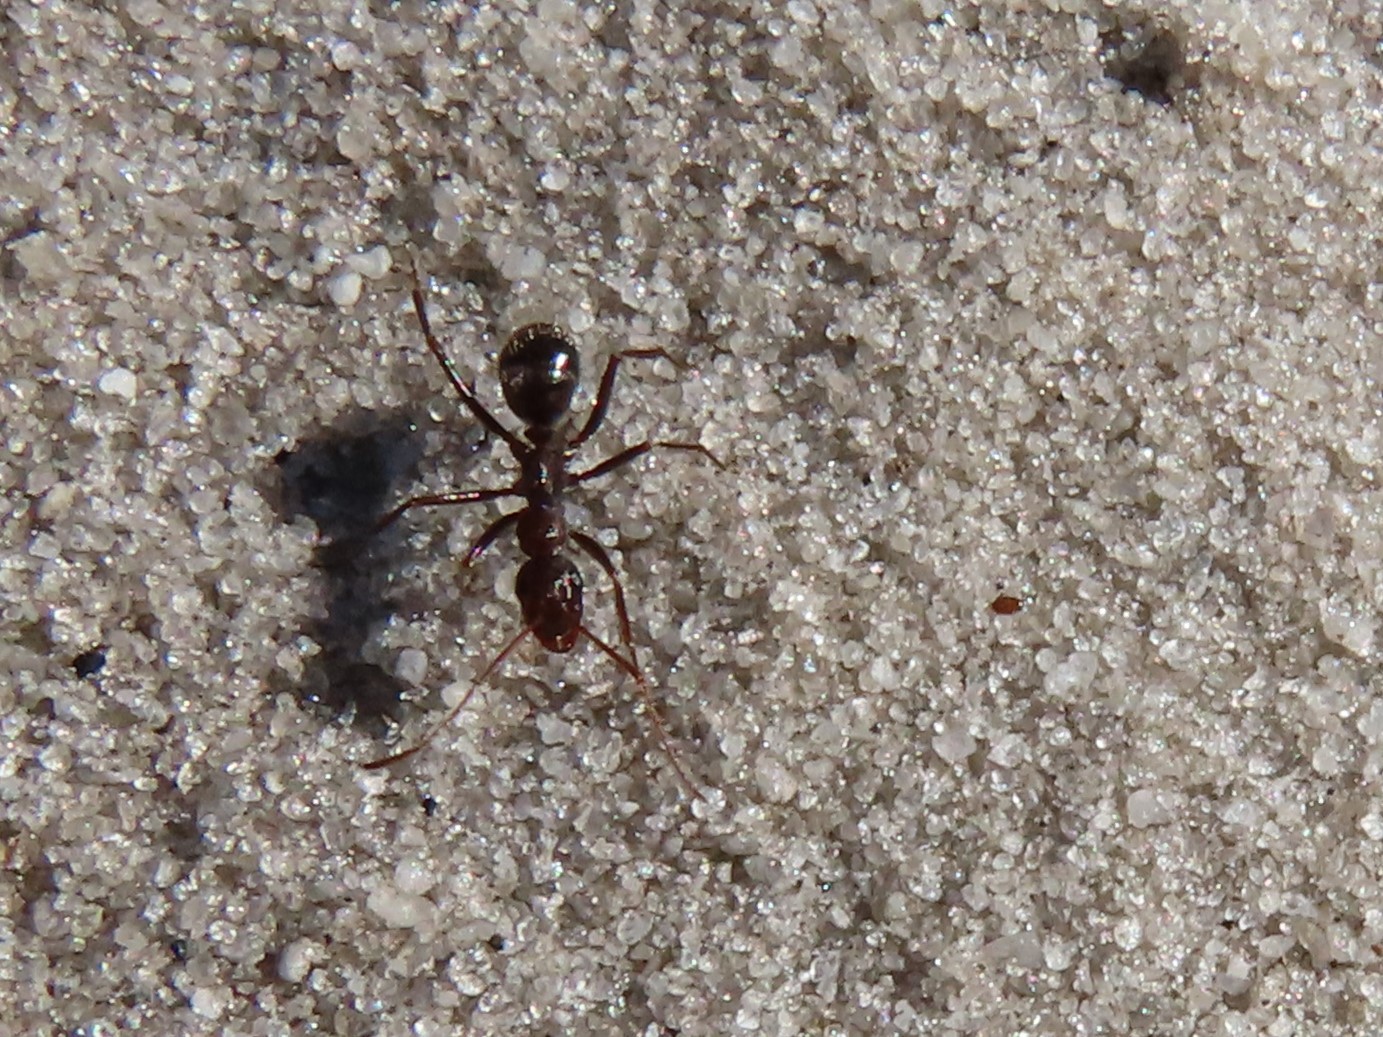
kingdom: Animalia
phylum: Arthropoda
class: Insecta
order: Hymenoptera
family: Formicidae
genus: Formica
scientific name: Formica archboldi
